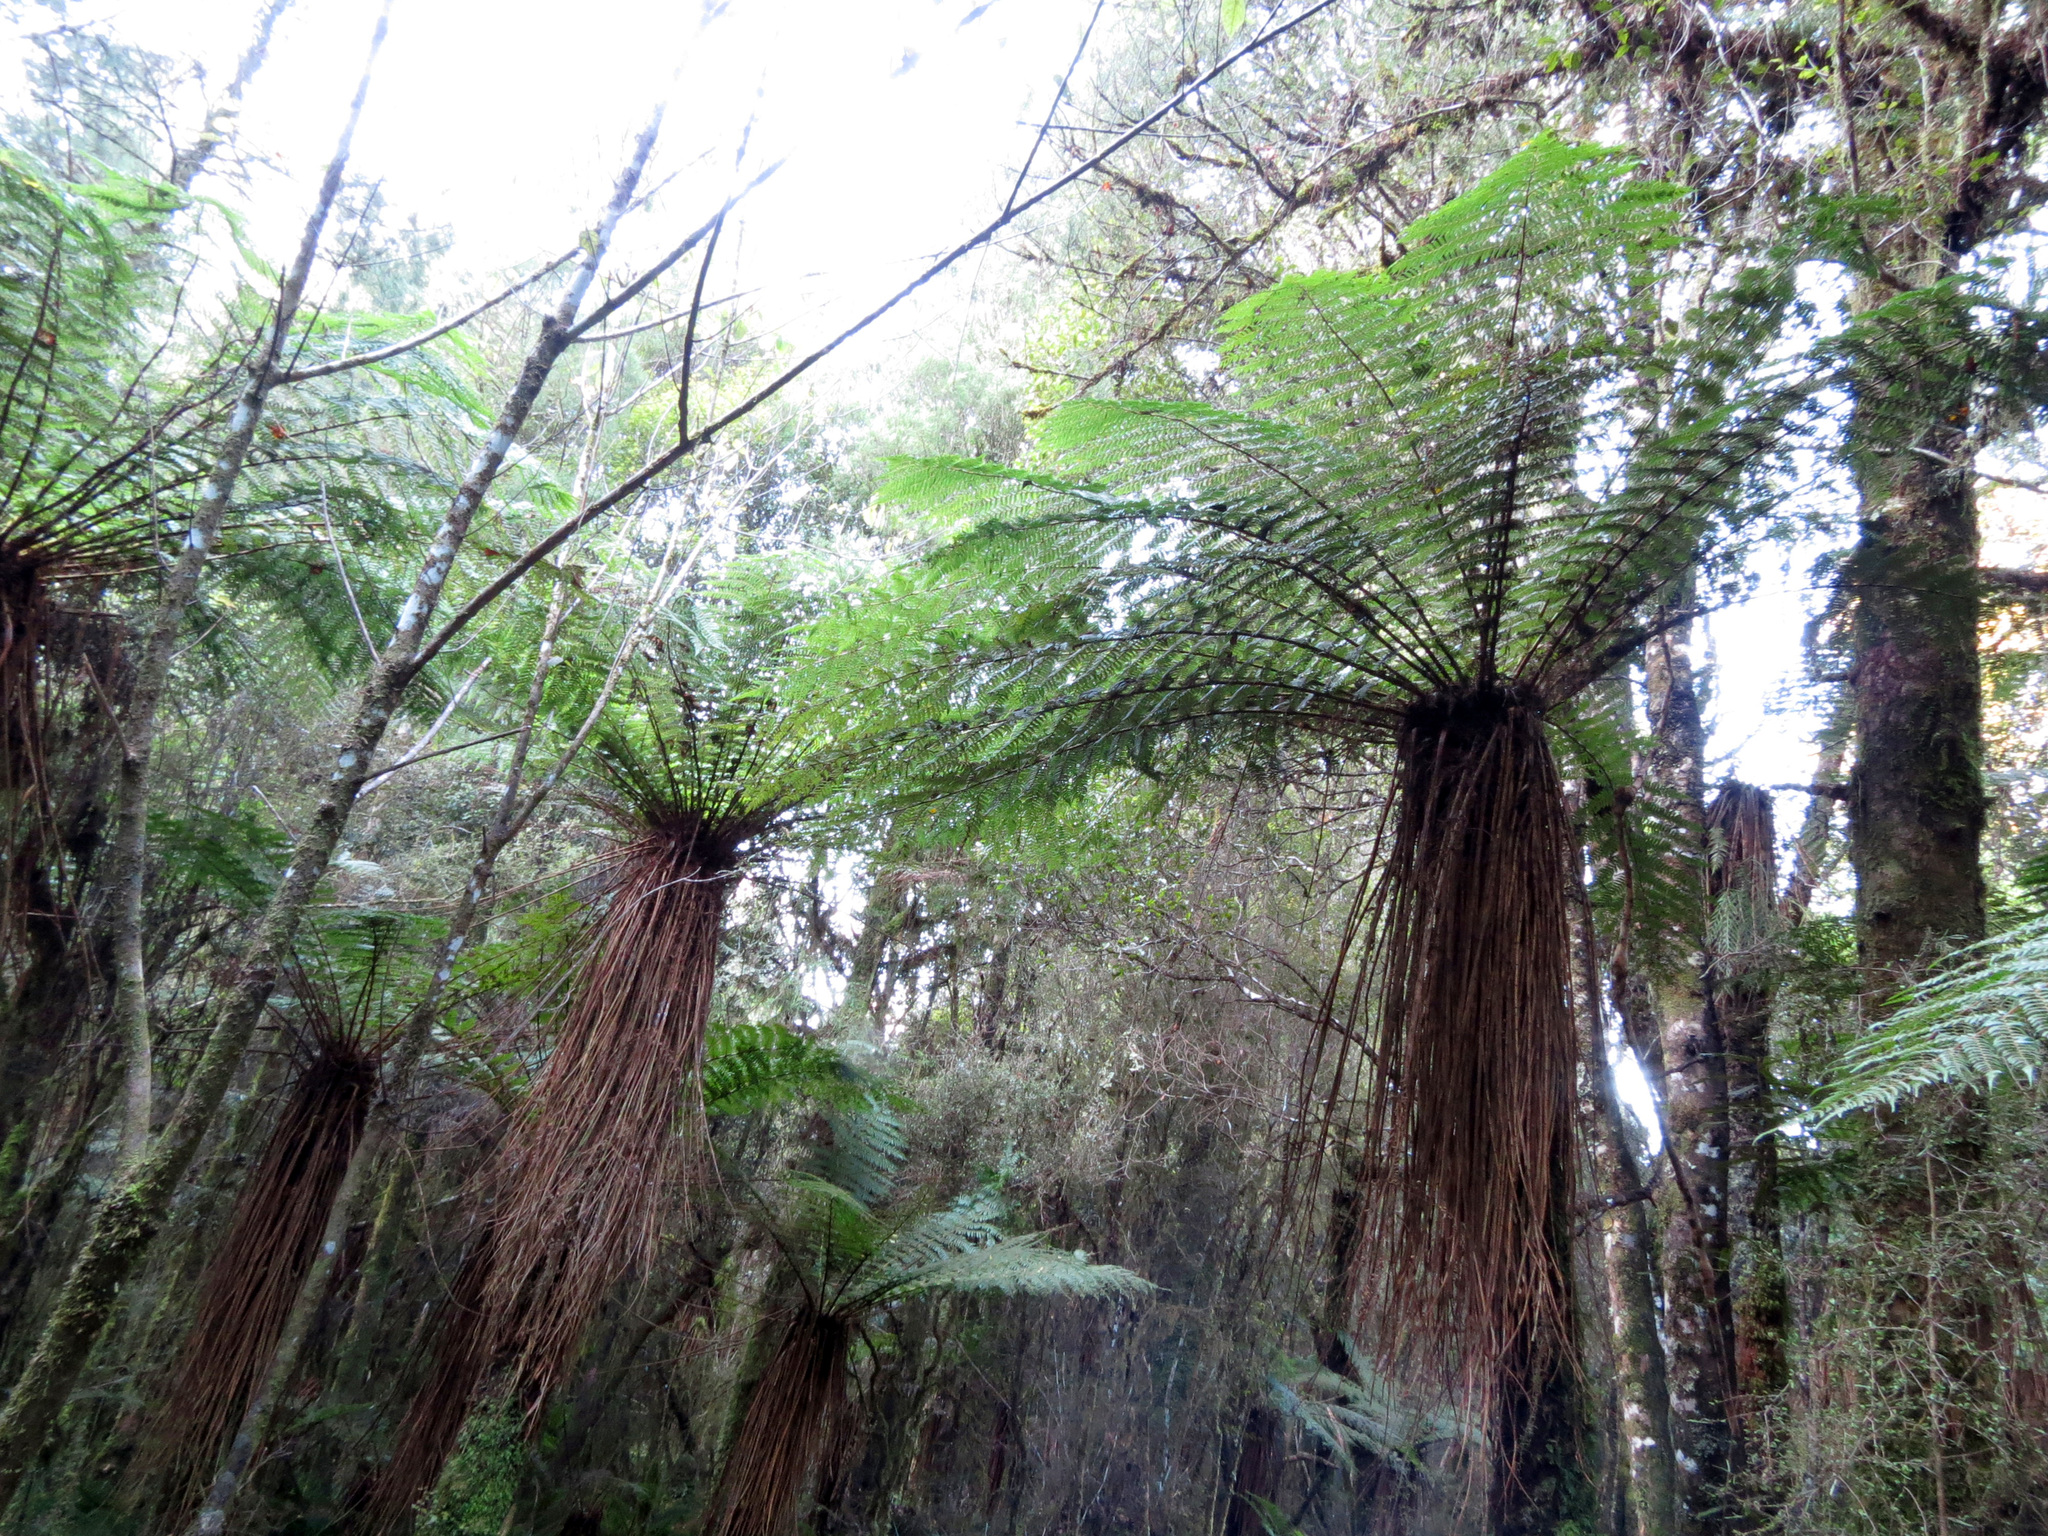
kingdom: Plantae
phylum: Tracheophyta
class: Polypodiopsida
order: Cyatheales
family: Cyatheaceae
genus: Alsophila
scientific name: Alsophila smithii
